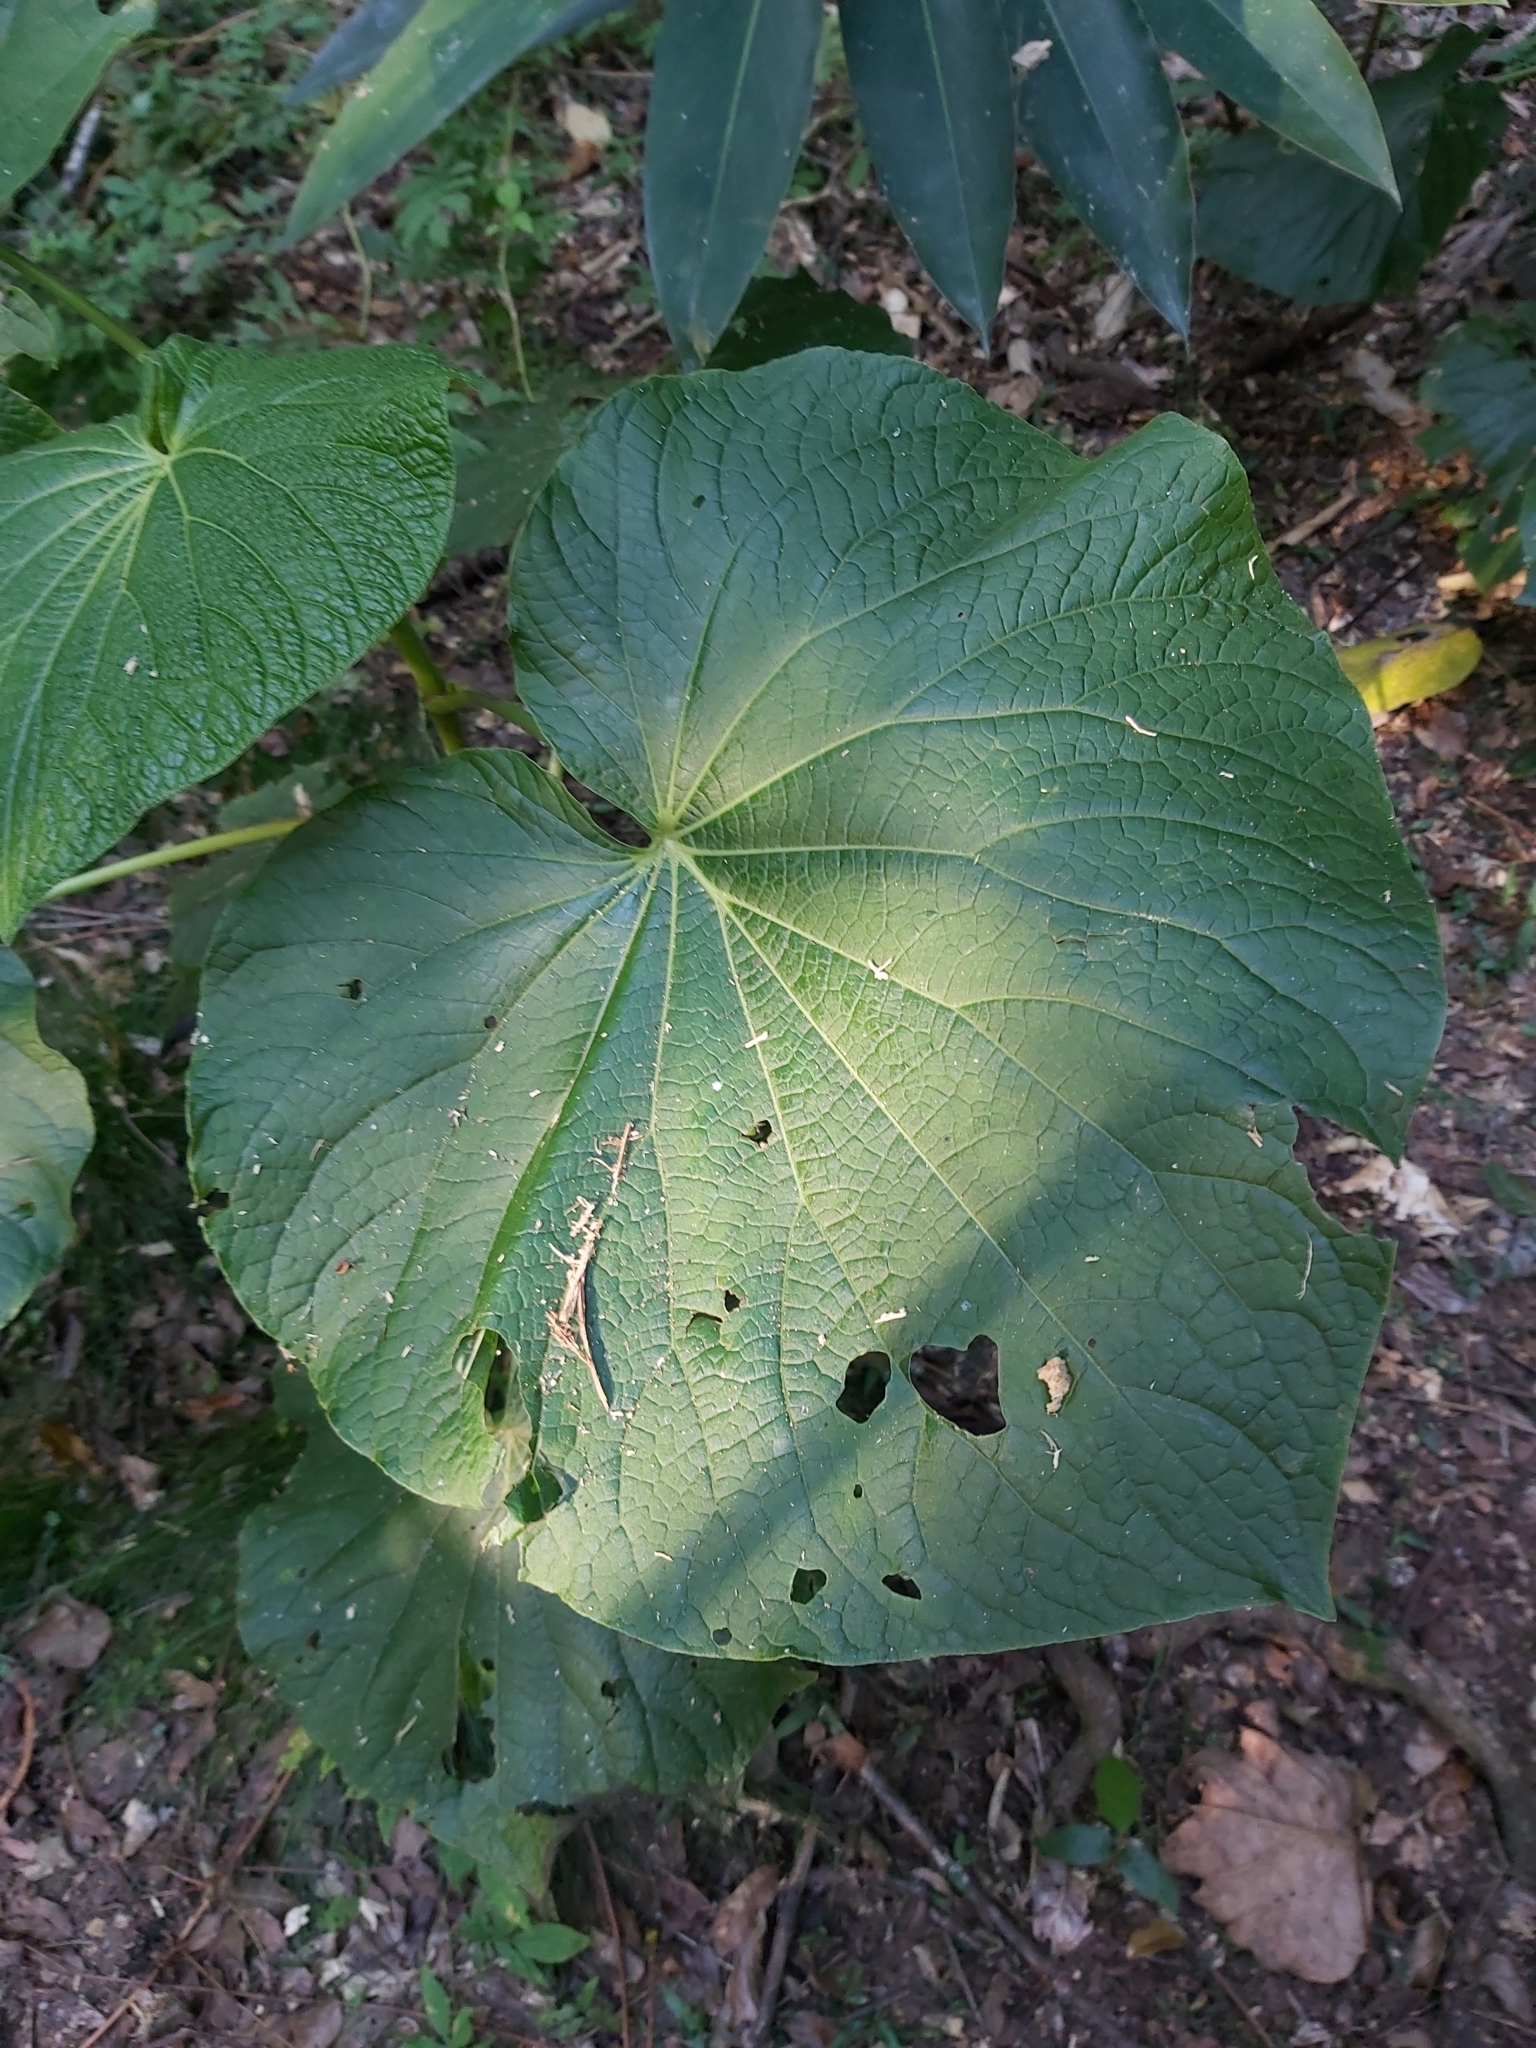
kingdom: Plantae
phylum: Tracheophyta
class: Magnoliopsida
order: Piperales
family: Piperaceae
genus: Piper
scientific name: Piper umbellatum
